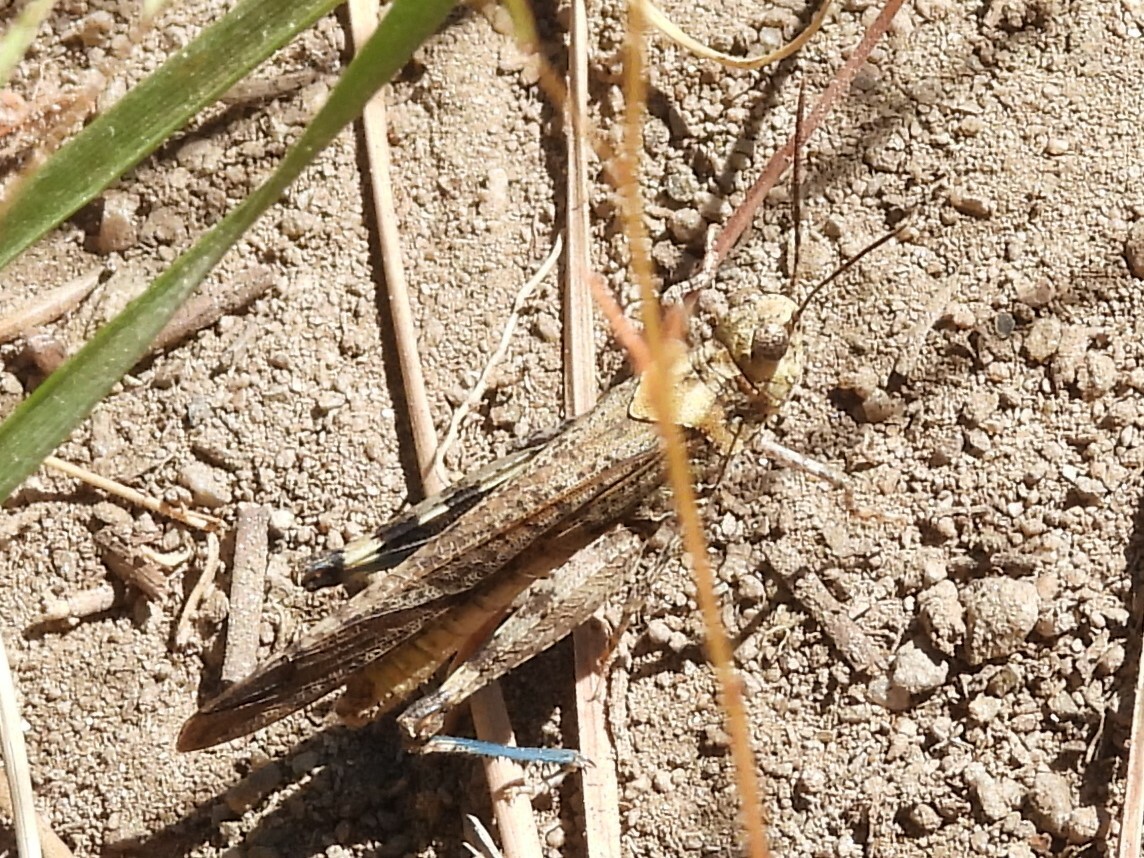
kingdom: Animalia
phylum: Arthropoda
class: Insecta
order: Orthoptera
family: Acrididae
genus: Trimerotropis
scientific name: Trimerotropis verruculata
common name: Crackling forest grasshopper
